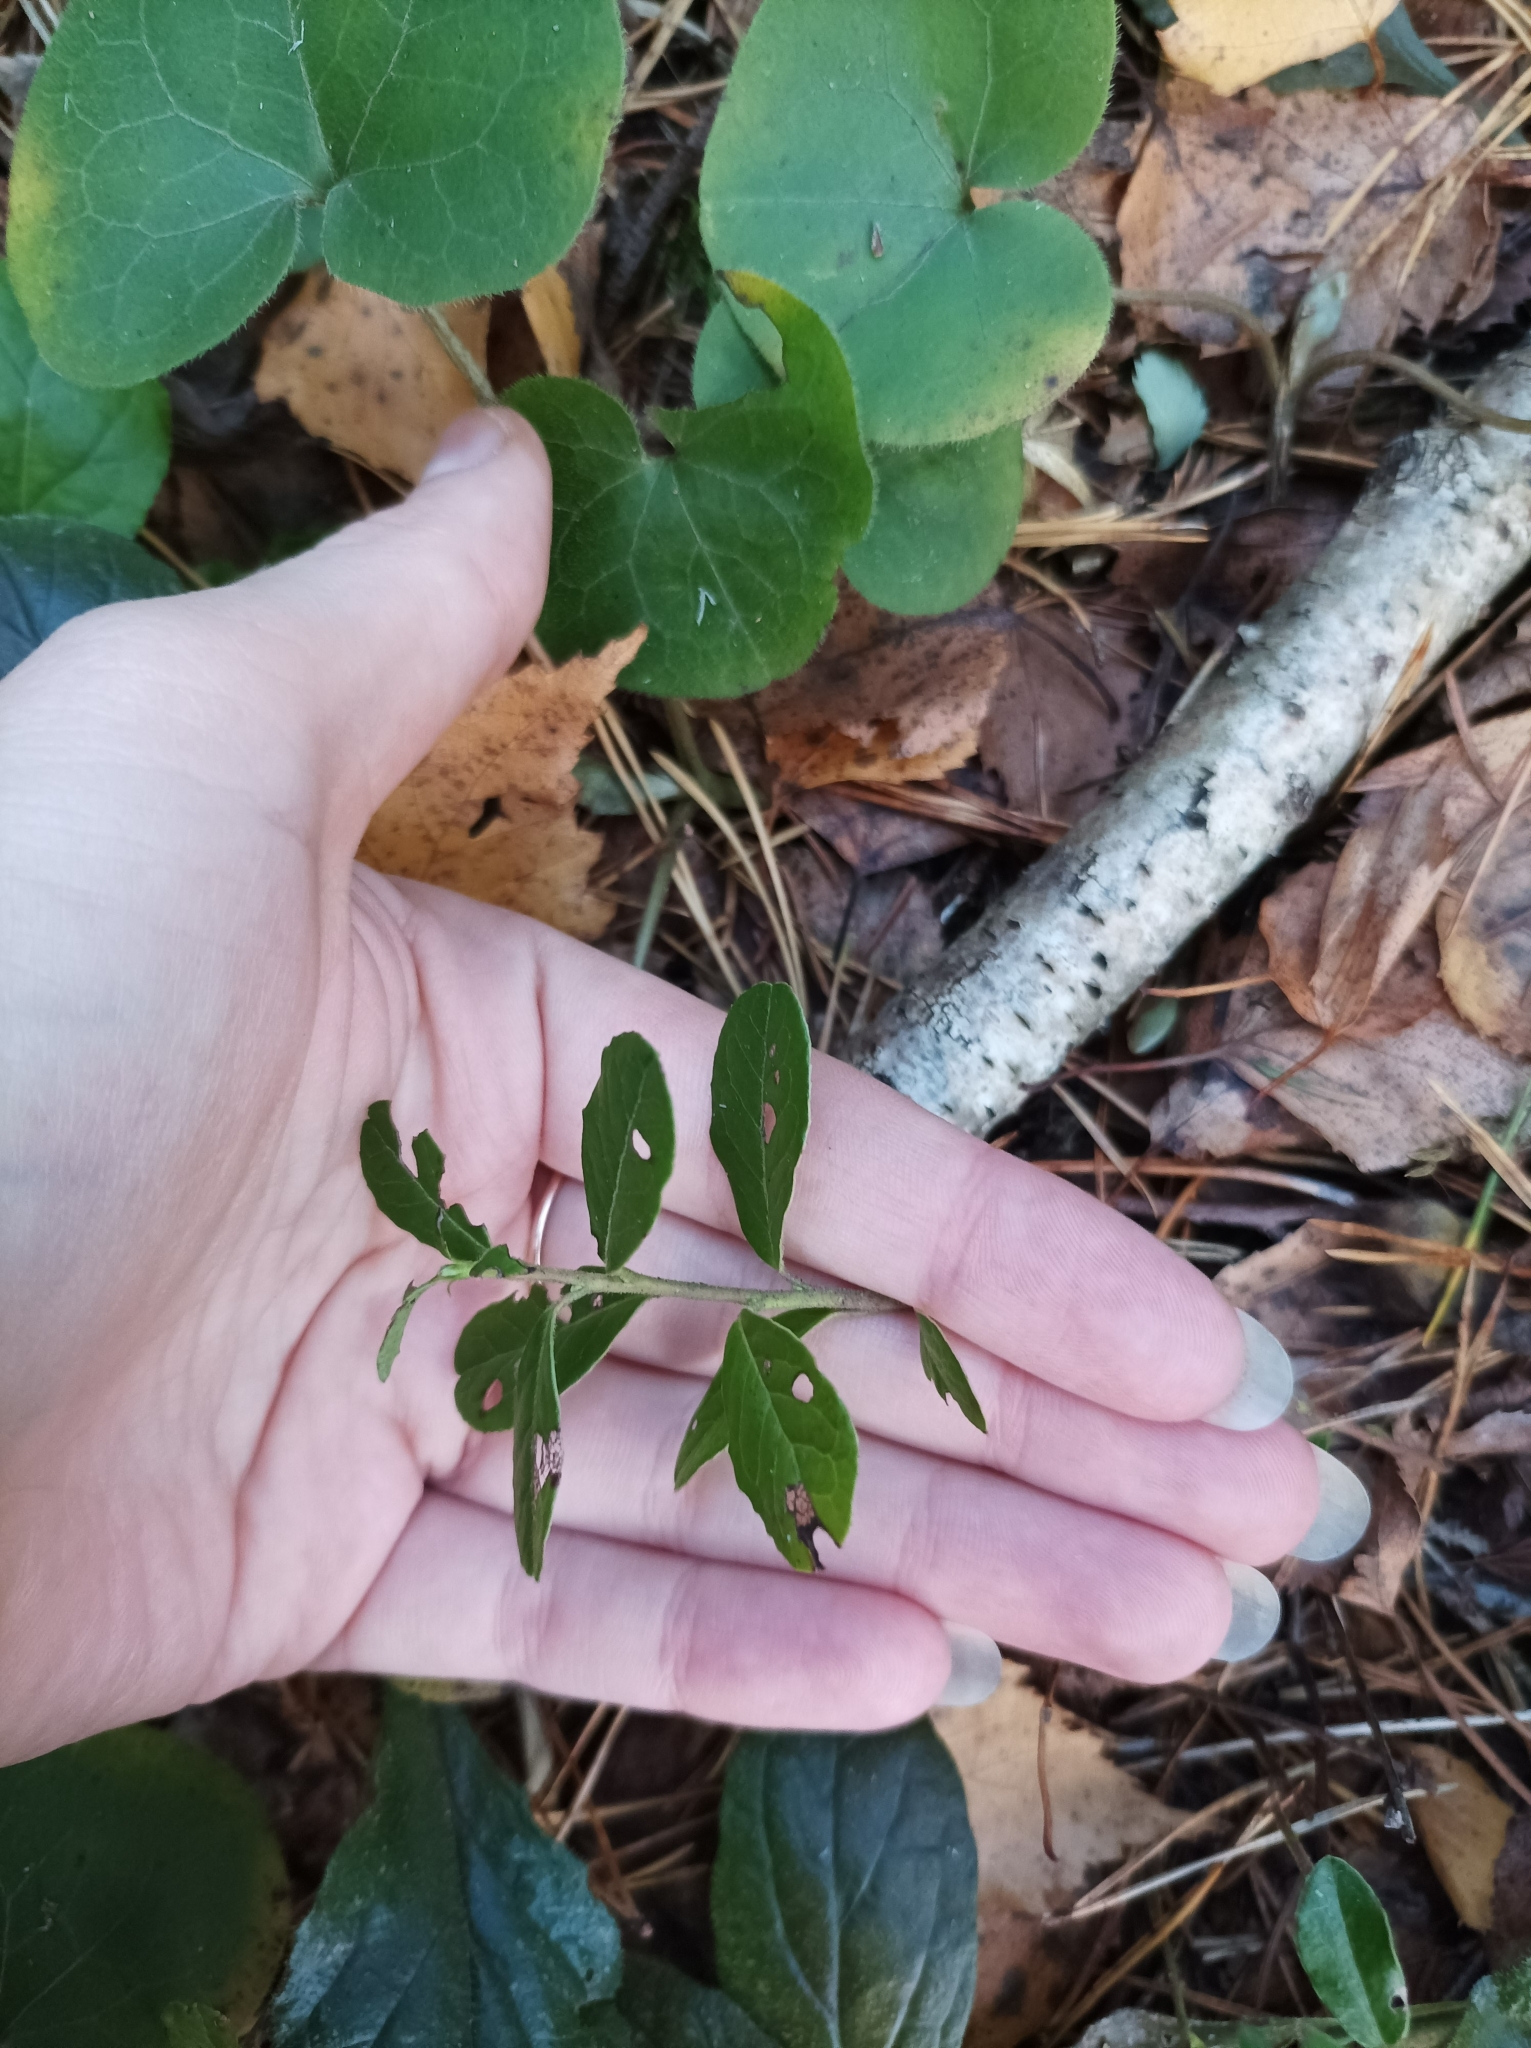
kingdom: Plantae
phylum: Tracheophyta
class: Magnoliopsida
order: Ericales
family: Ericaceae
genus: Vaccinium
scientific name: Vaccinium vitis-idaea
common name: Cowberry
